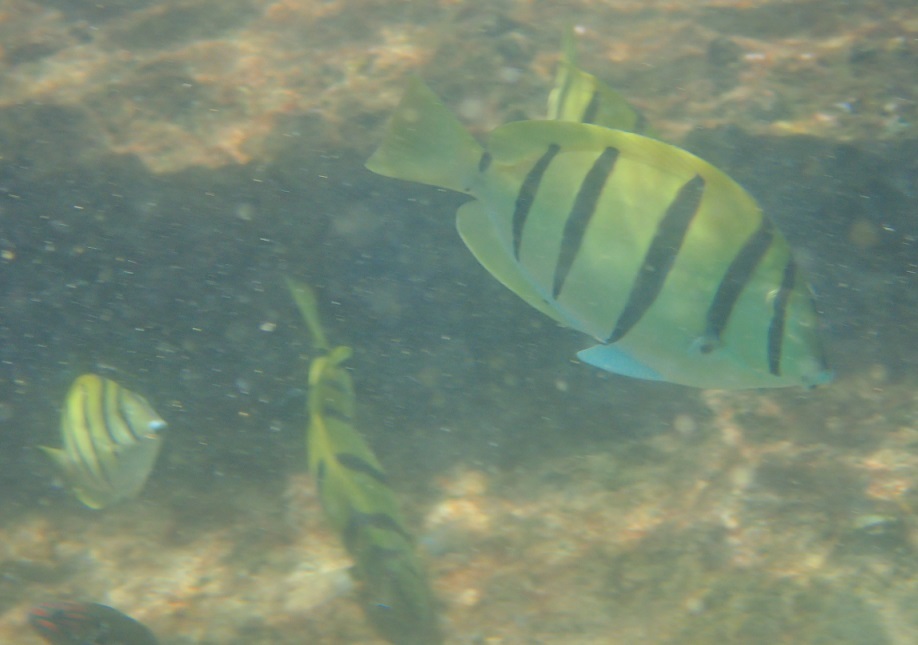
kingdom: Animalia
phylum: Chordata
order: Perciformes
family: Acanthuridae
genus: Acanthurus
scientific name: Acanthurus triostegus
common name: Convict surgeonfish
